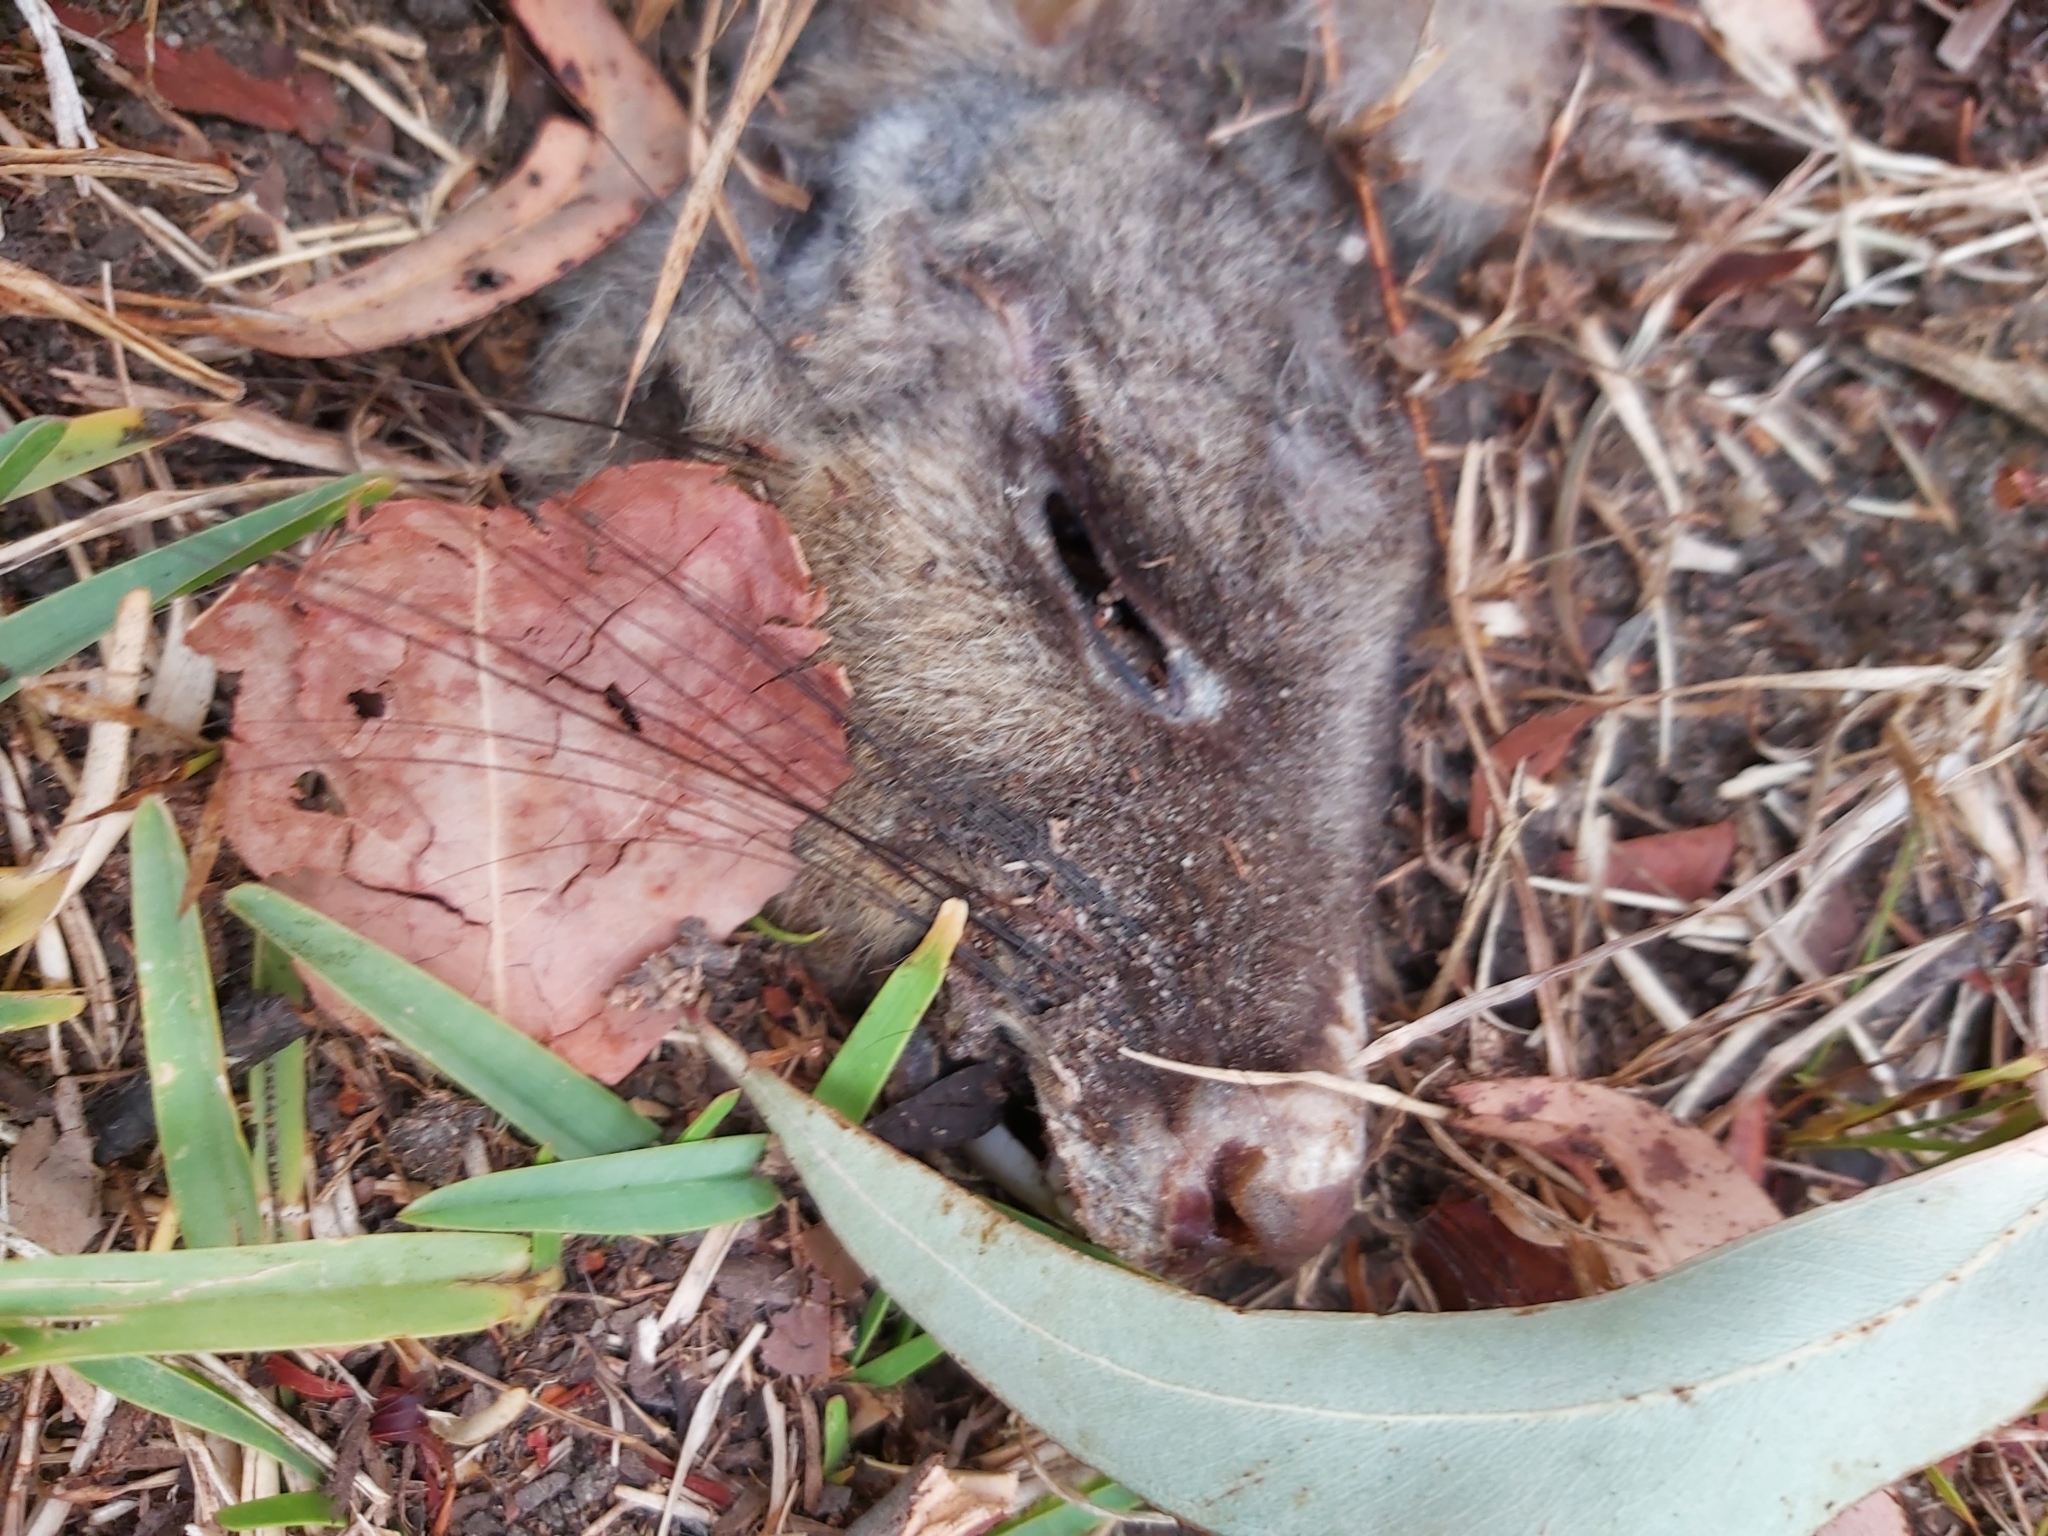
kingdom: Animalia
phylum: Chordata
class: Mammalia
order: Diprotodontia
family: Phalangeridae
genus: Trichosurus
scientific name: Trichosurus vulpecula
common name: Common brushtail
